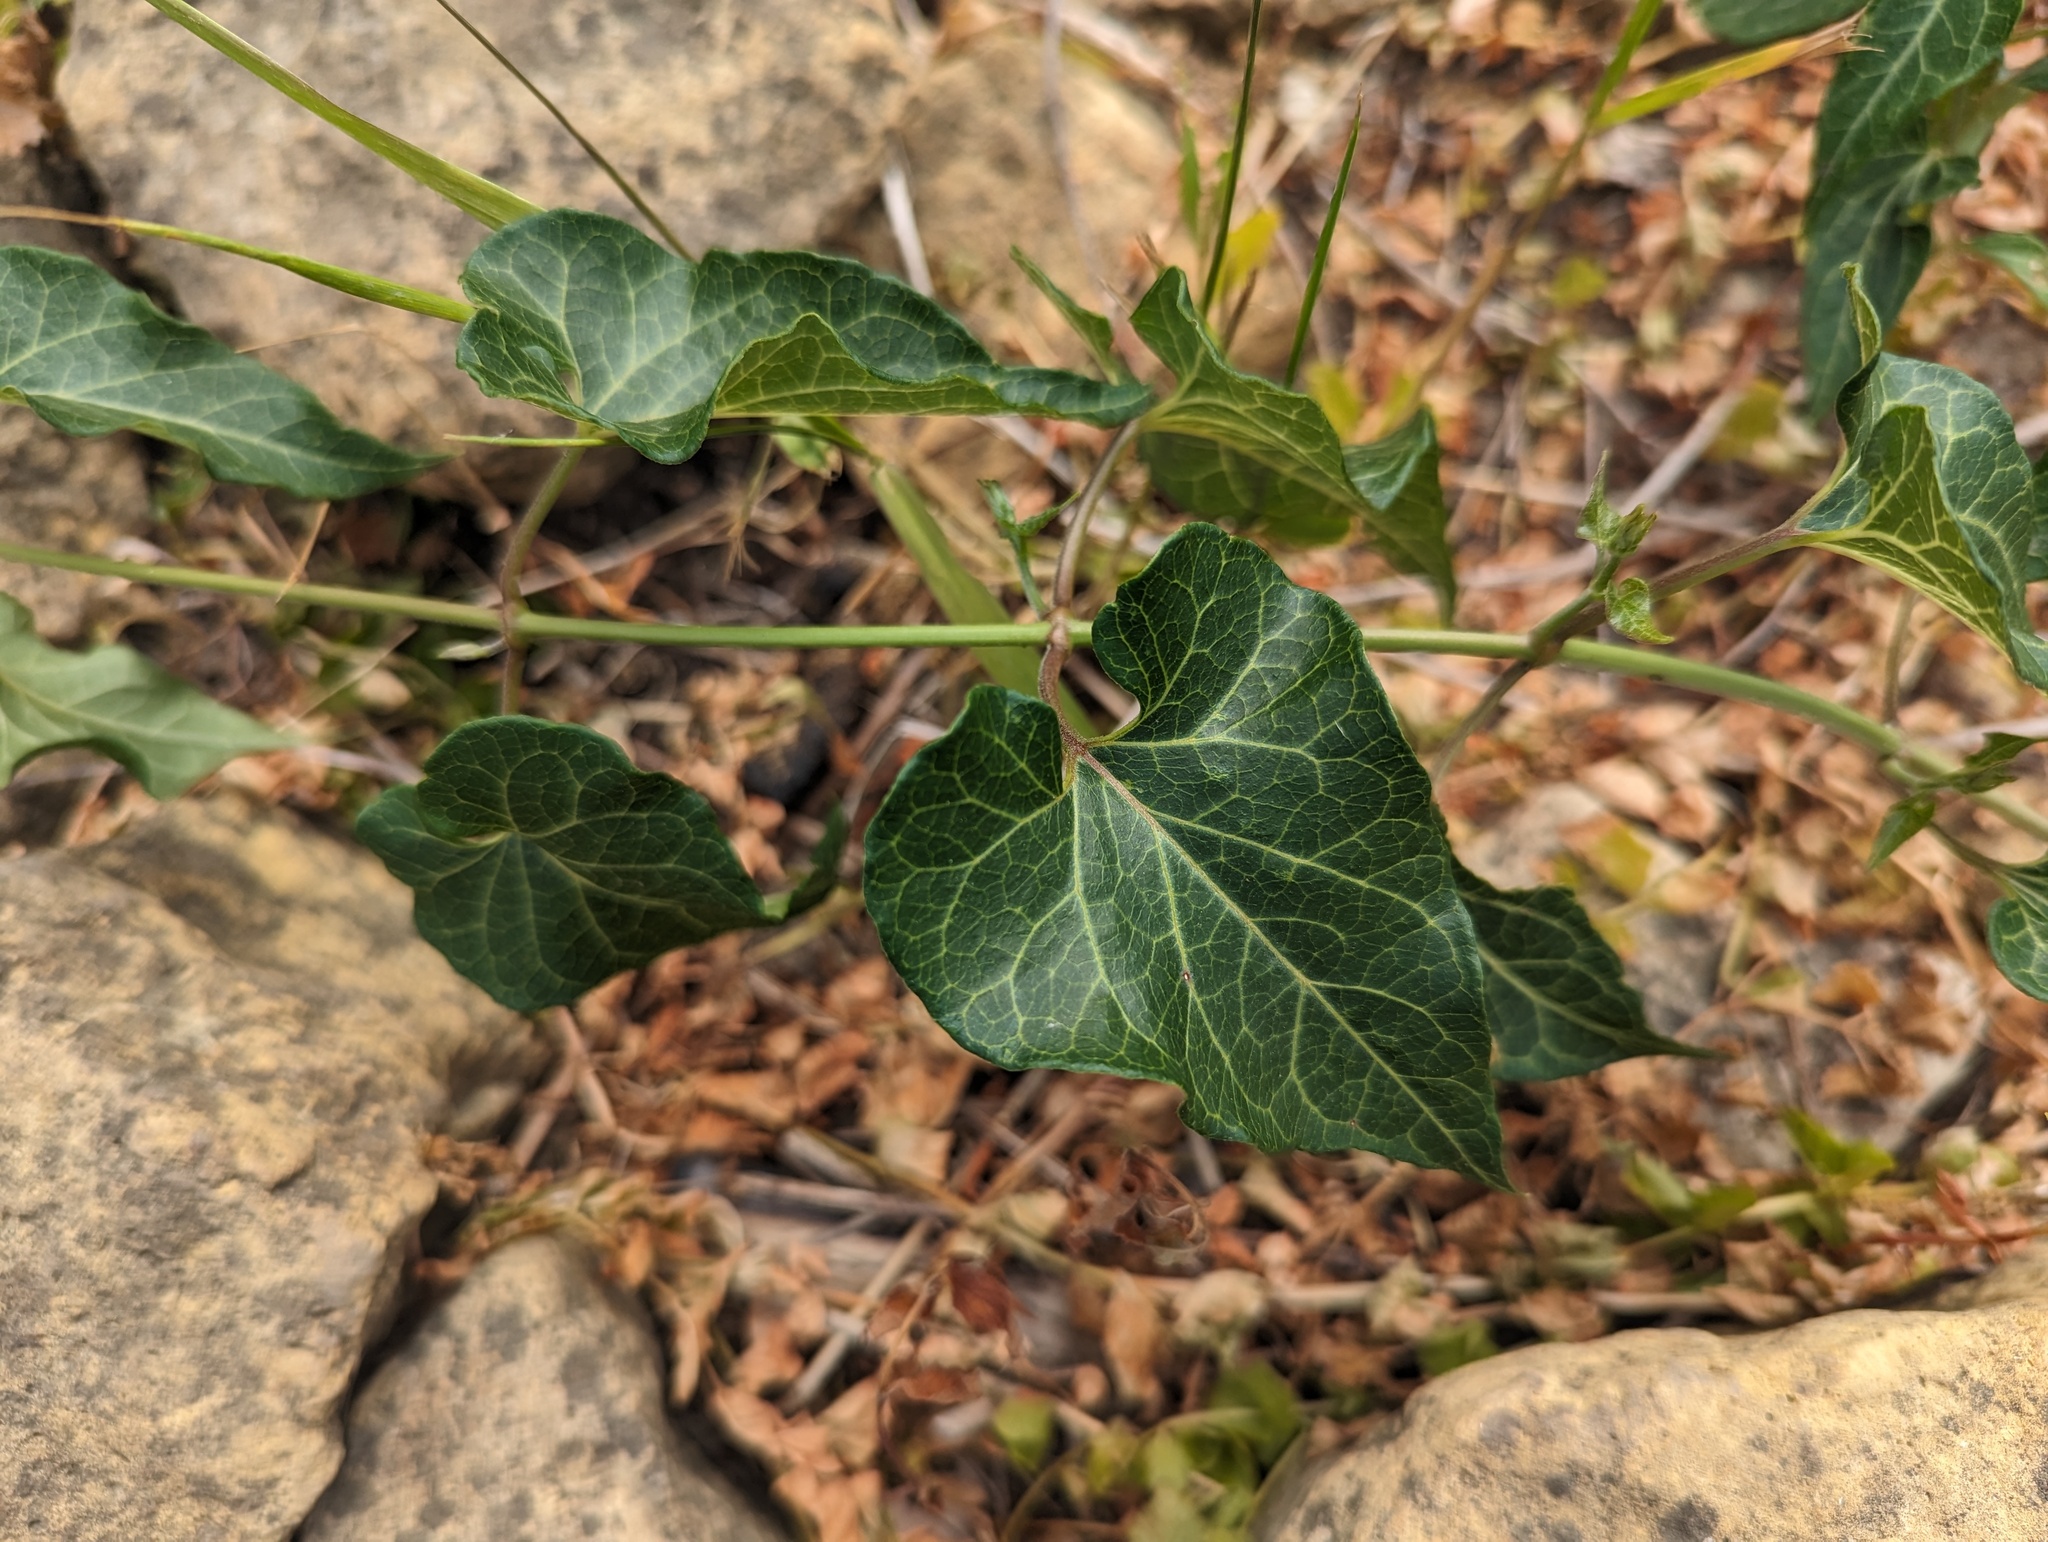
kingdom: Plantae
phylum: Tracheophyta
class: Magnoliopsida
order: Gentianales
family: Apocynaceae
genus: Cynanchum
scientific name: Cynanchum laeve
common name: Sandvine
